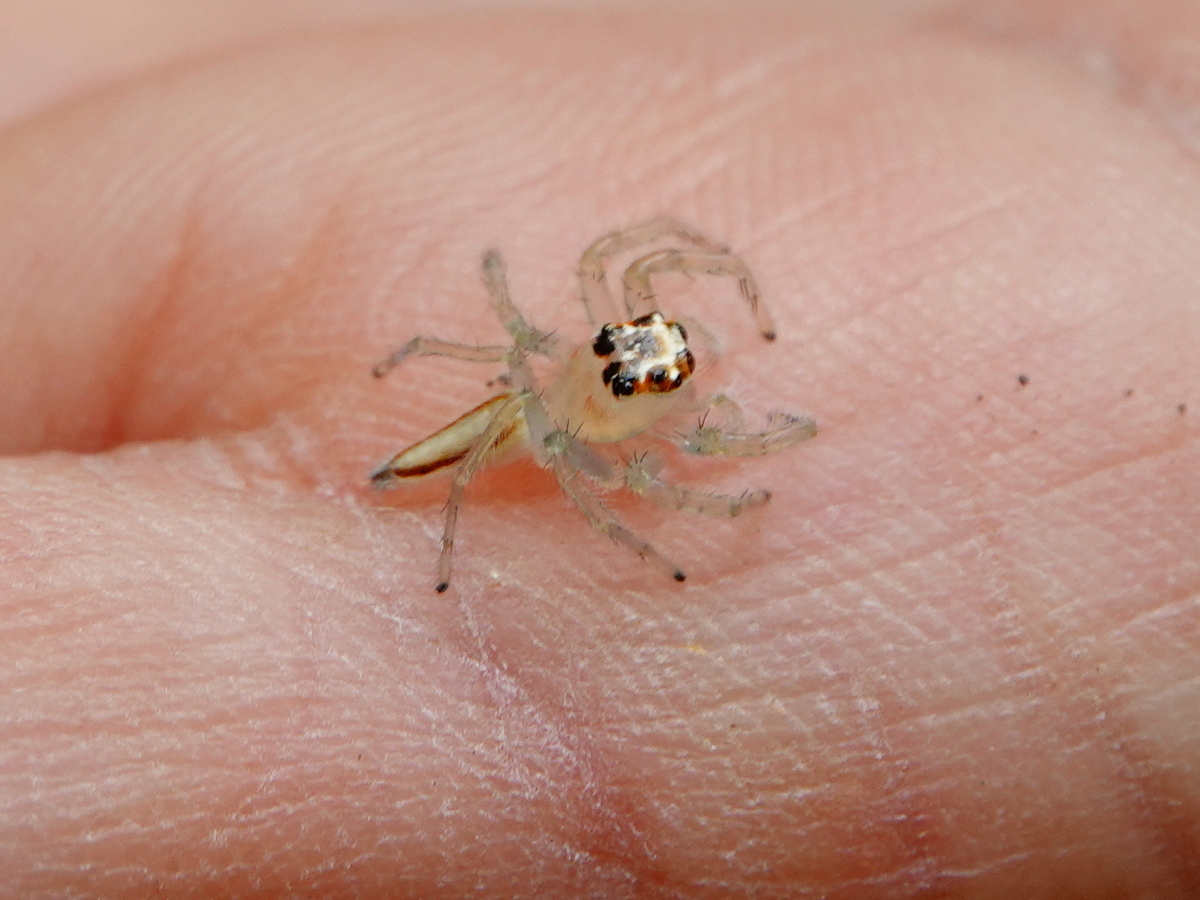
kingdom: Animalia
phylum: Arthropoda
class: Arachnida
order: Araneae
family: Salticidae
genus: Telamonia
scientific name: Telamonia dimidiata
